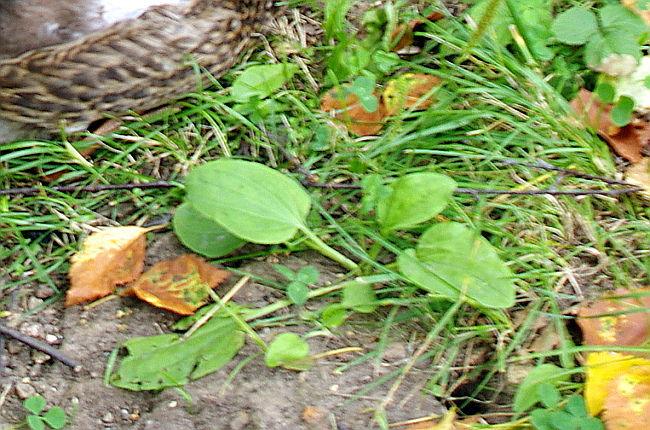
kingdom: Plantae
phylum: Tracheophyta
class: Magnoliopsida
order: Lamiales
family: Plantaginaceae
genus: Plantago
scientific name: Plantago major
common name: Common plantain
